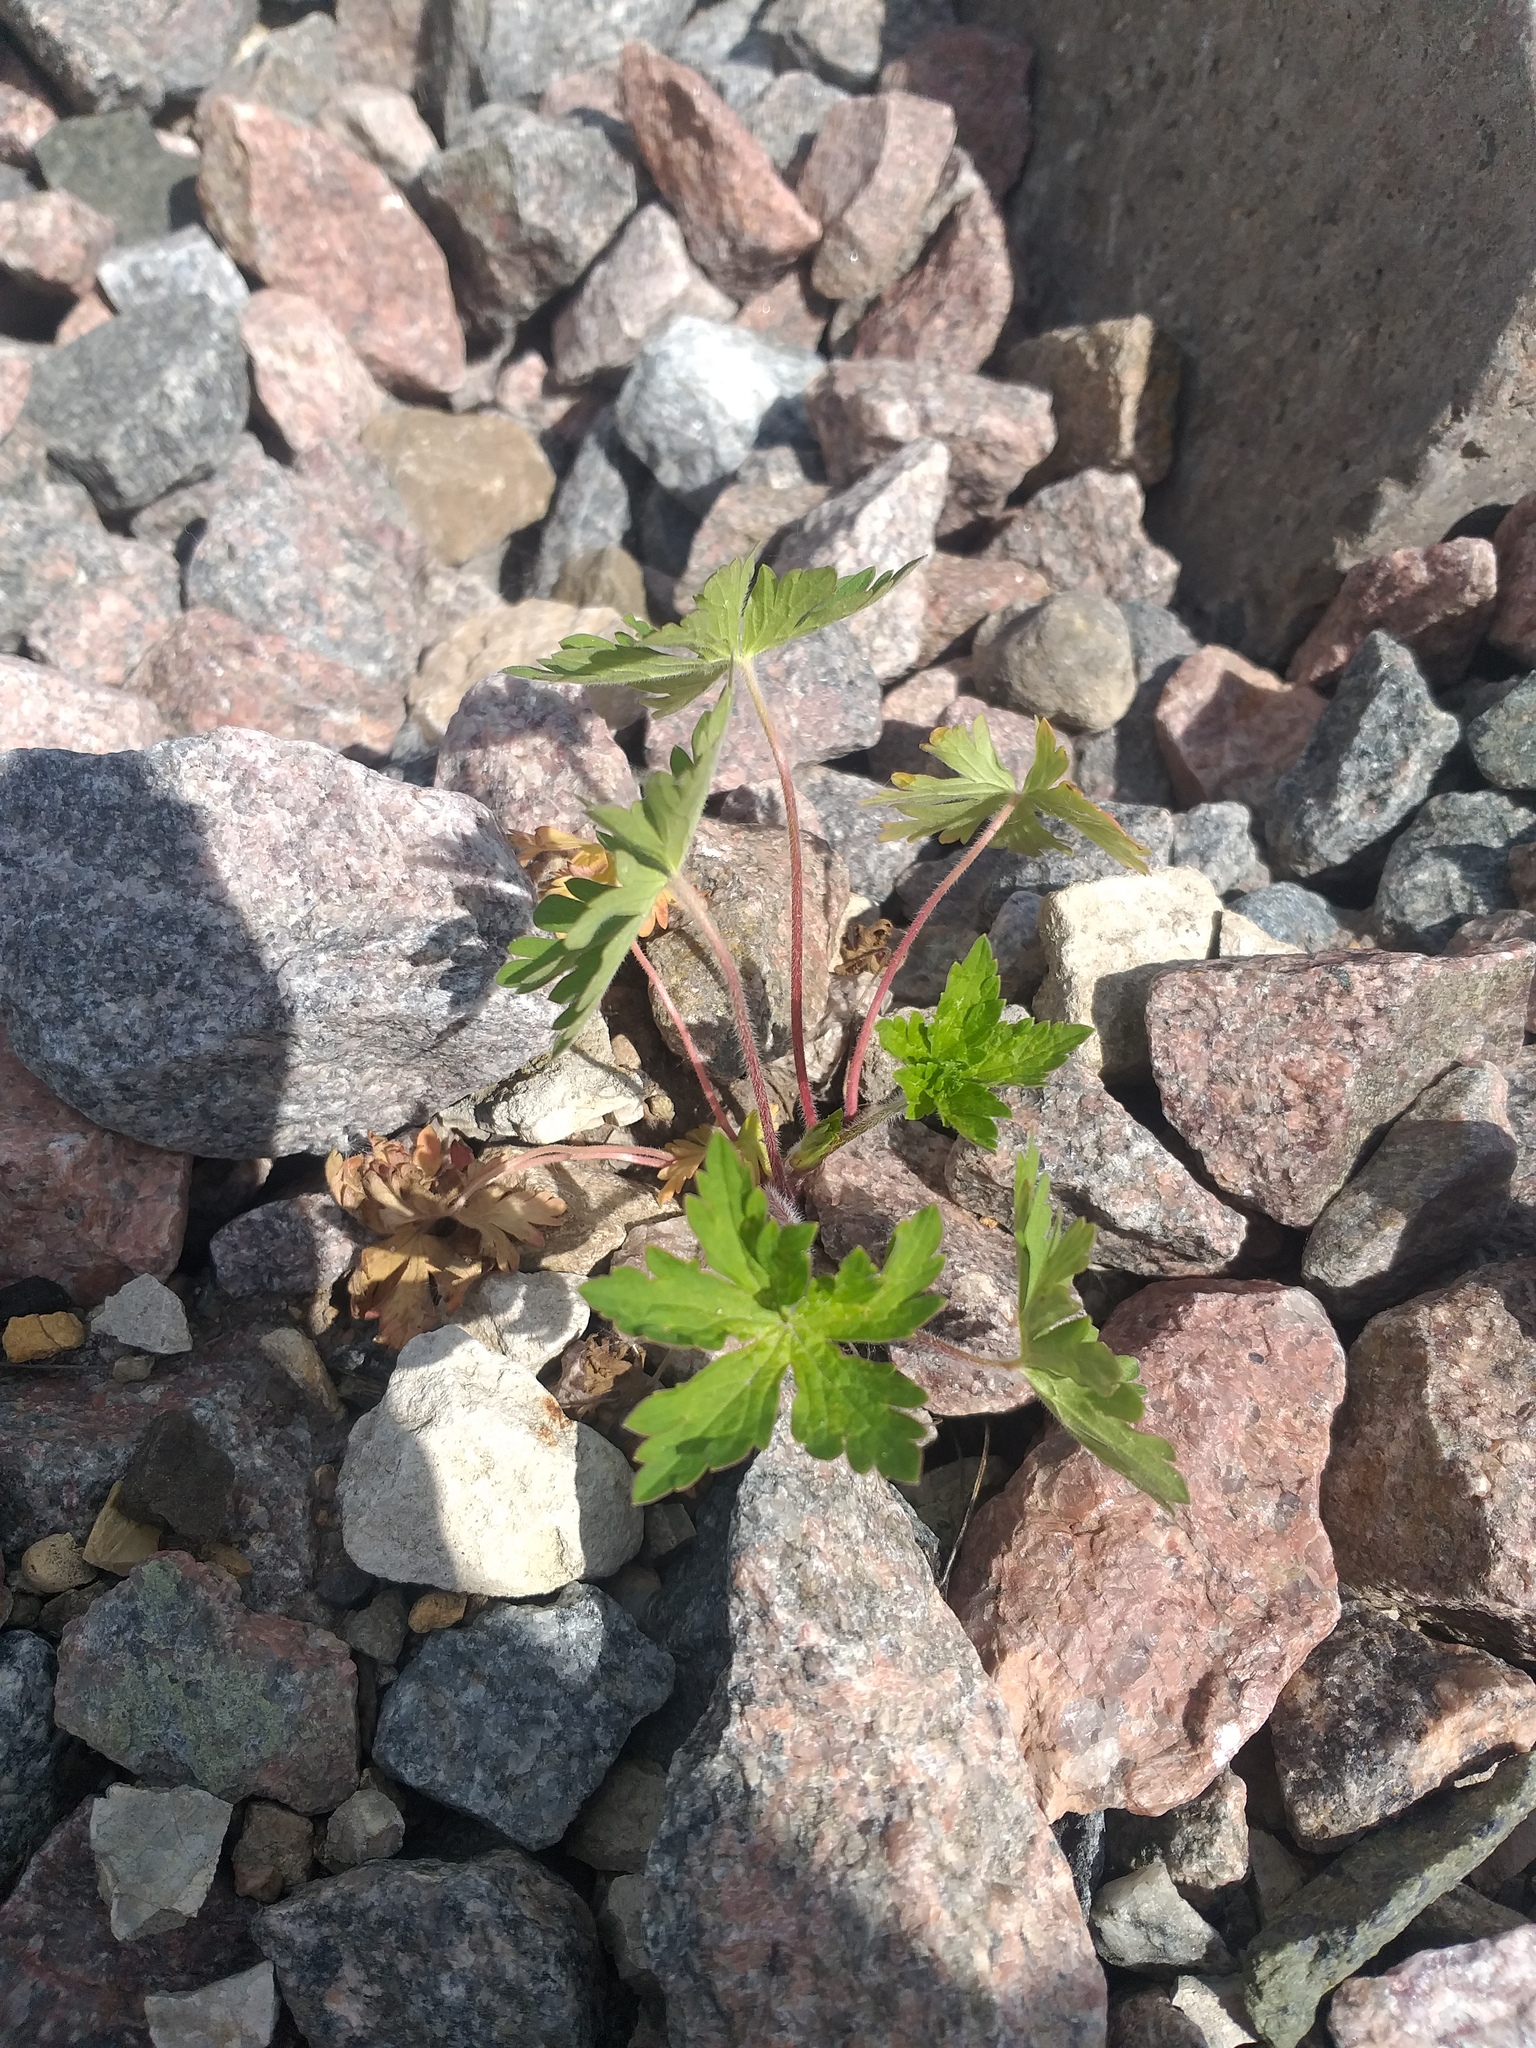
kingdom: Plantae
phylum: Tracheophyta
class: Magnoliopsida
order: Geraniales
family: Geraniaceae
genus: Geranium
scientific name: Geranium sibiricum
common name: Siberian crane's-bill
